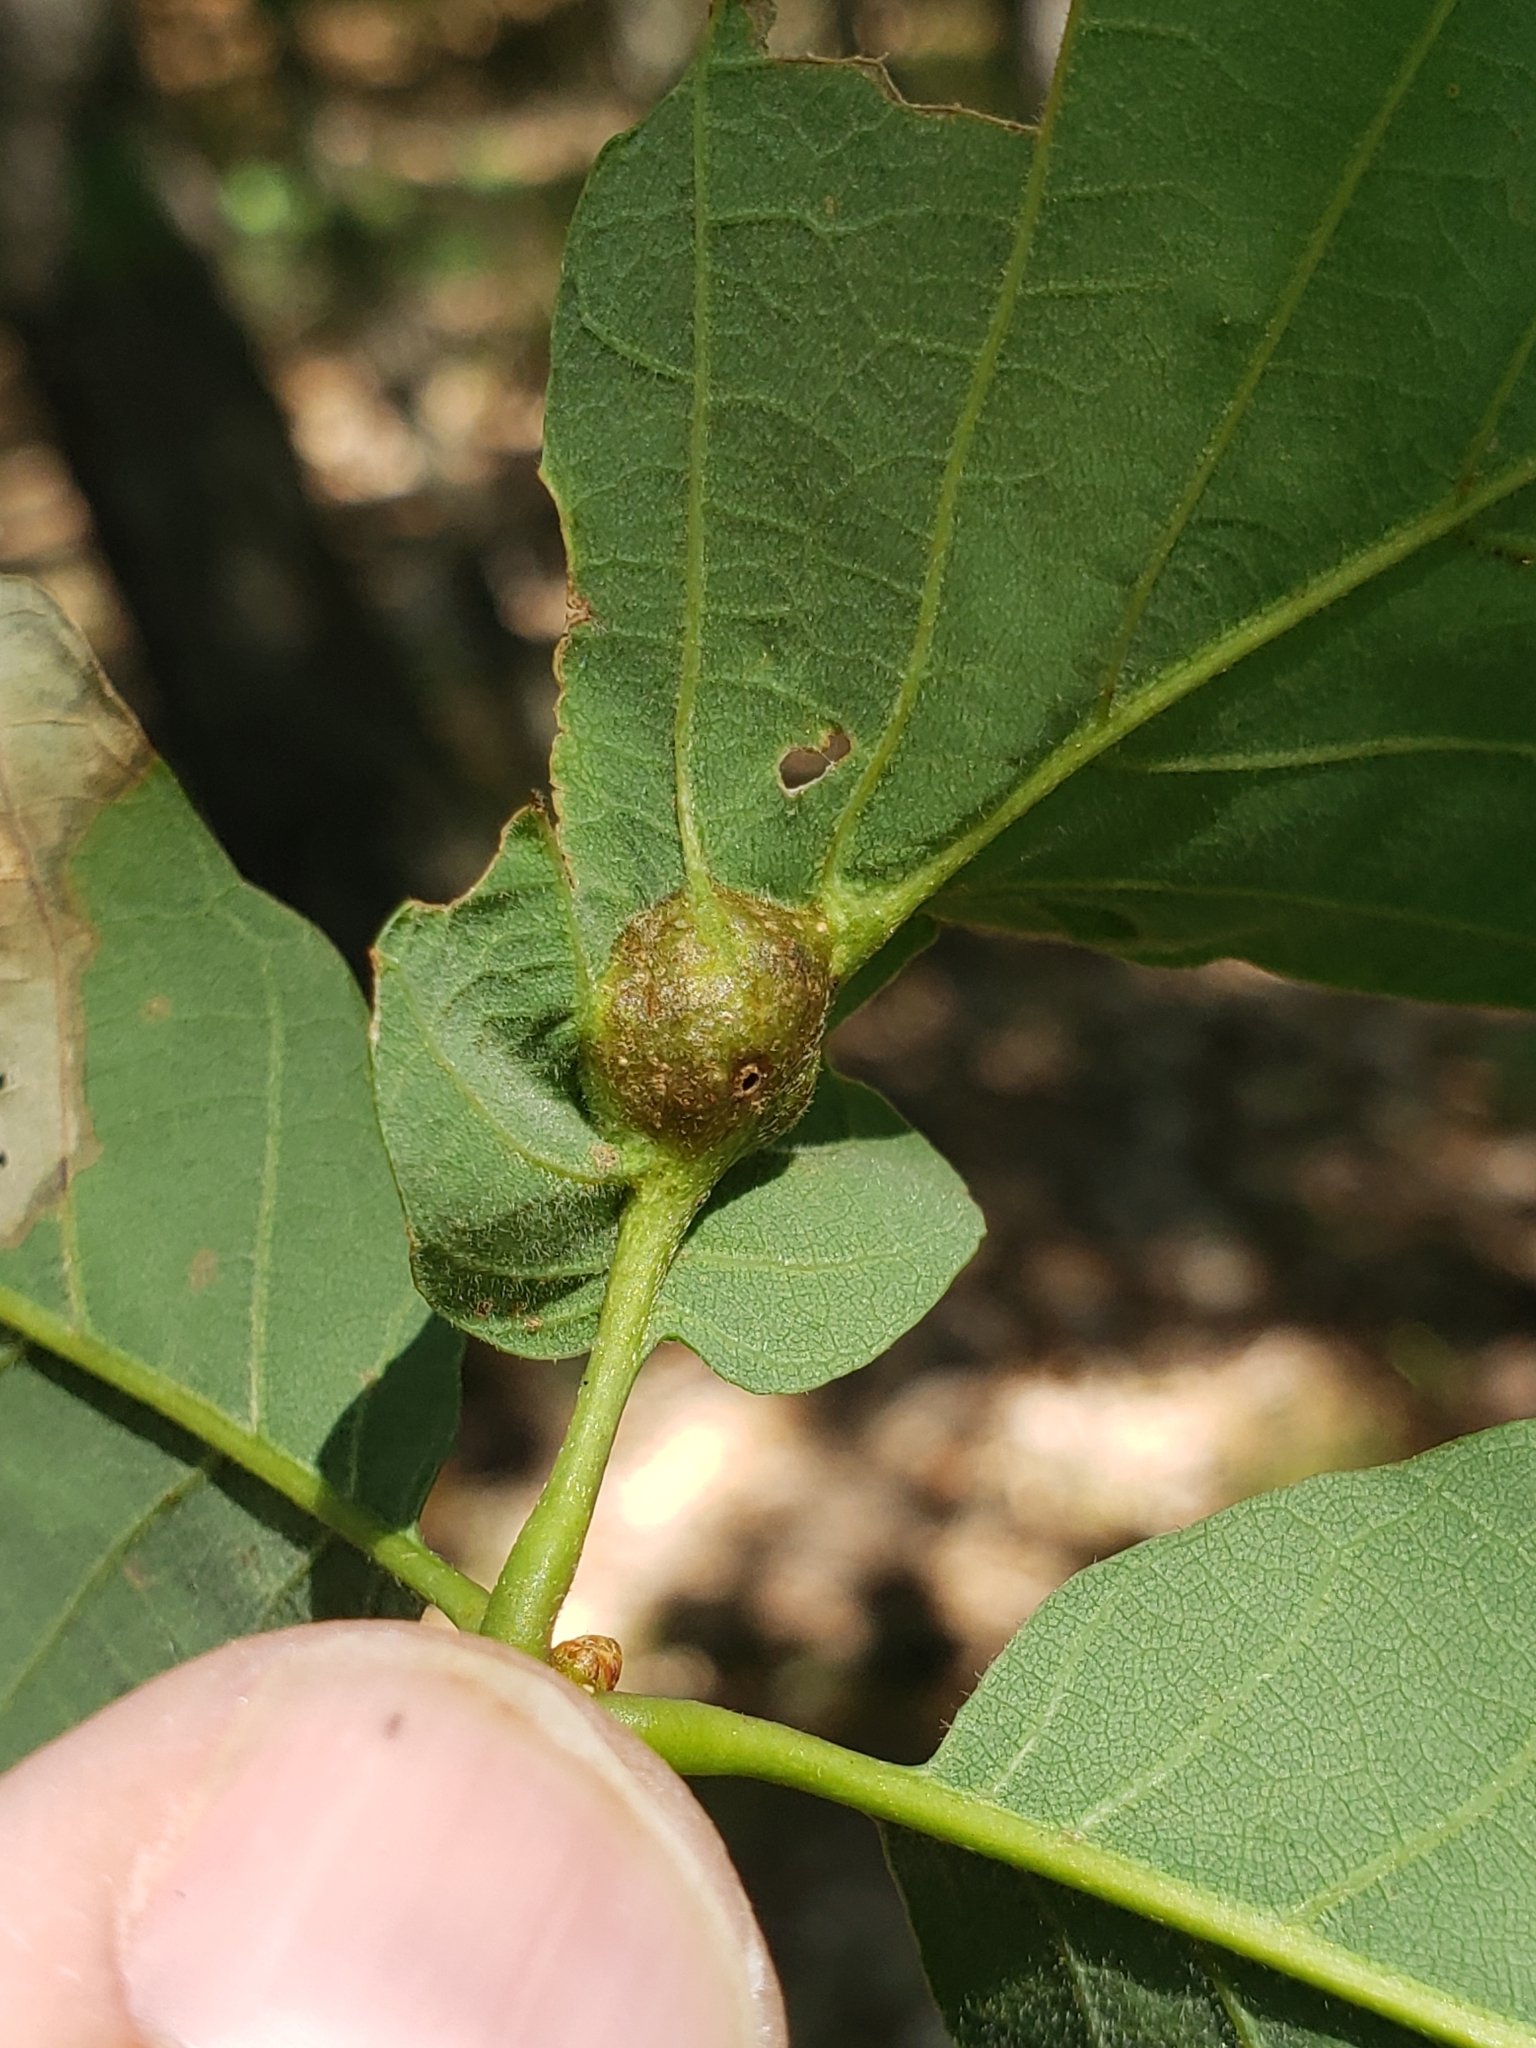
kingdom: Animalia
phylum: Arthropoda
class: Insecta
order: Hymenoptera
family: Cynipidae
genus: Andricus
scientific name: Andricus
